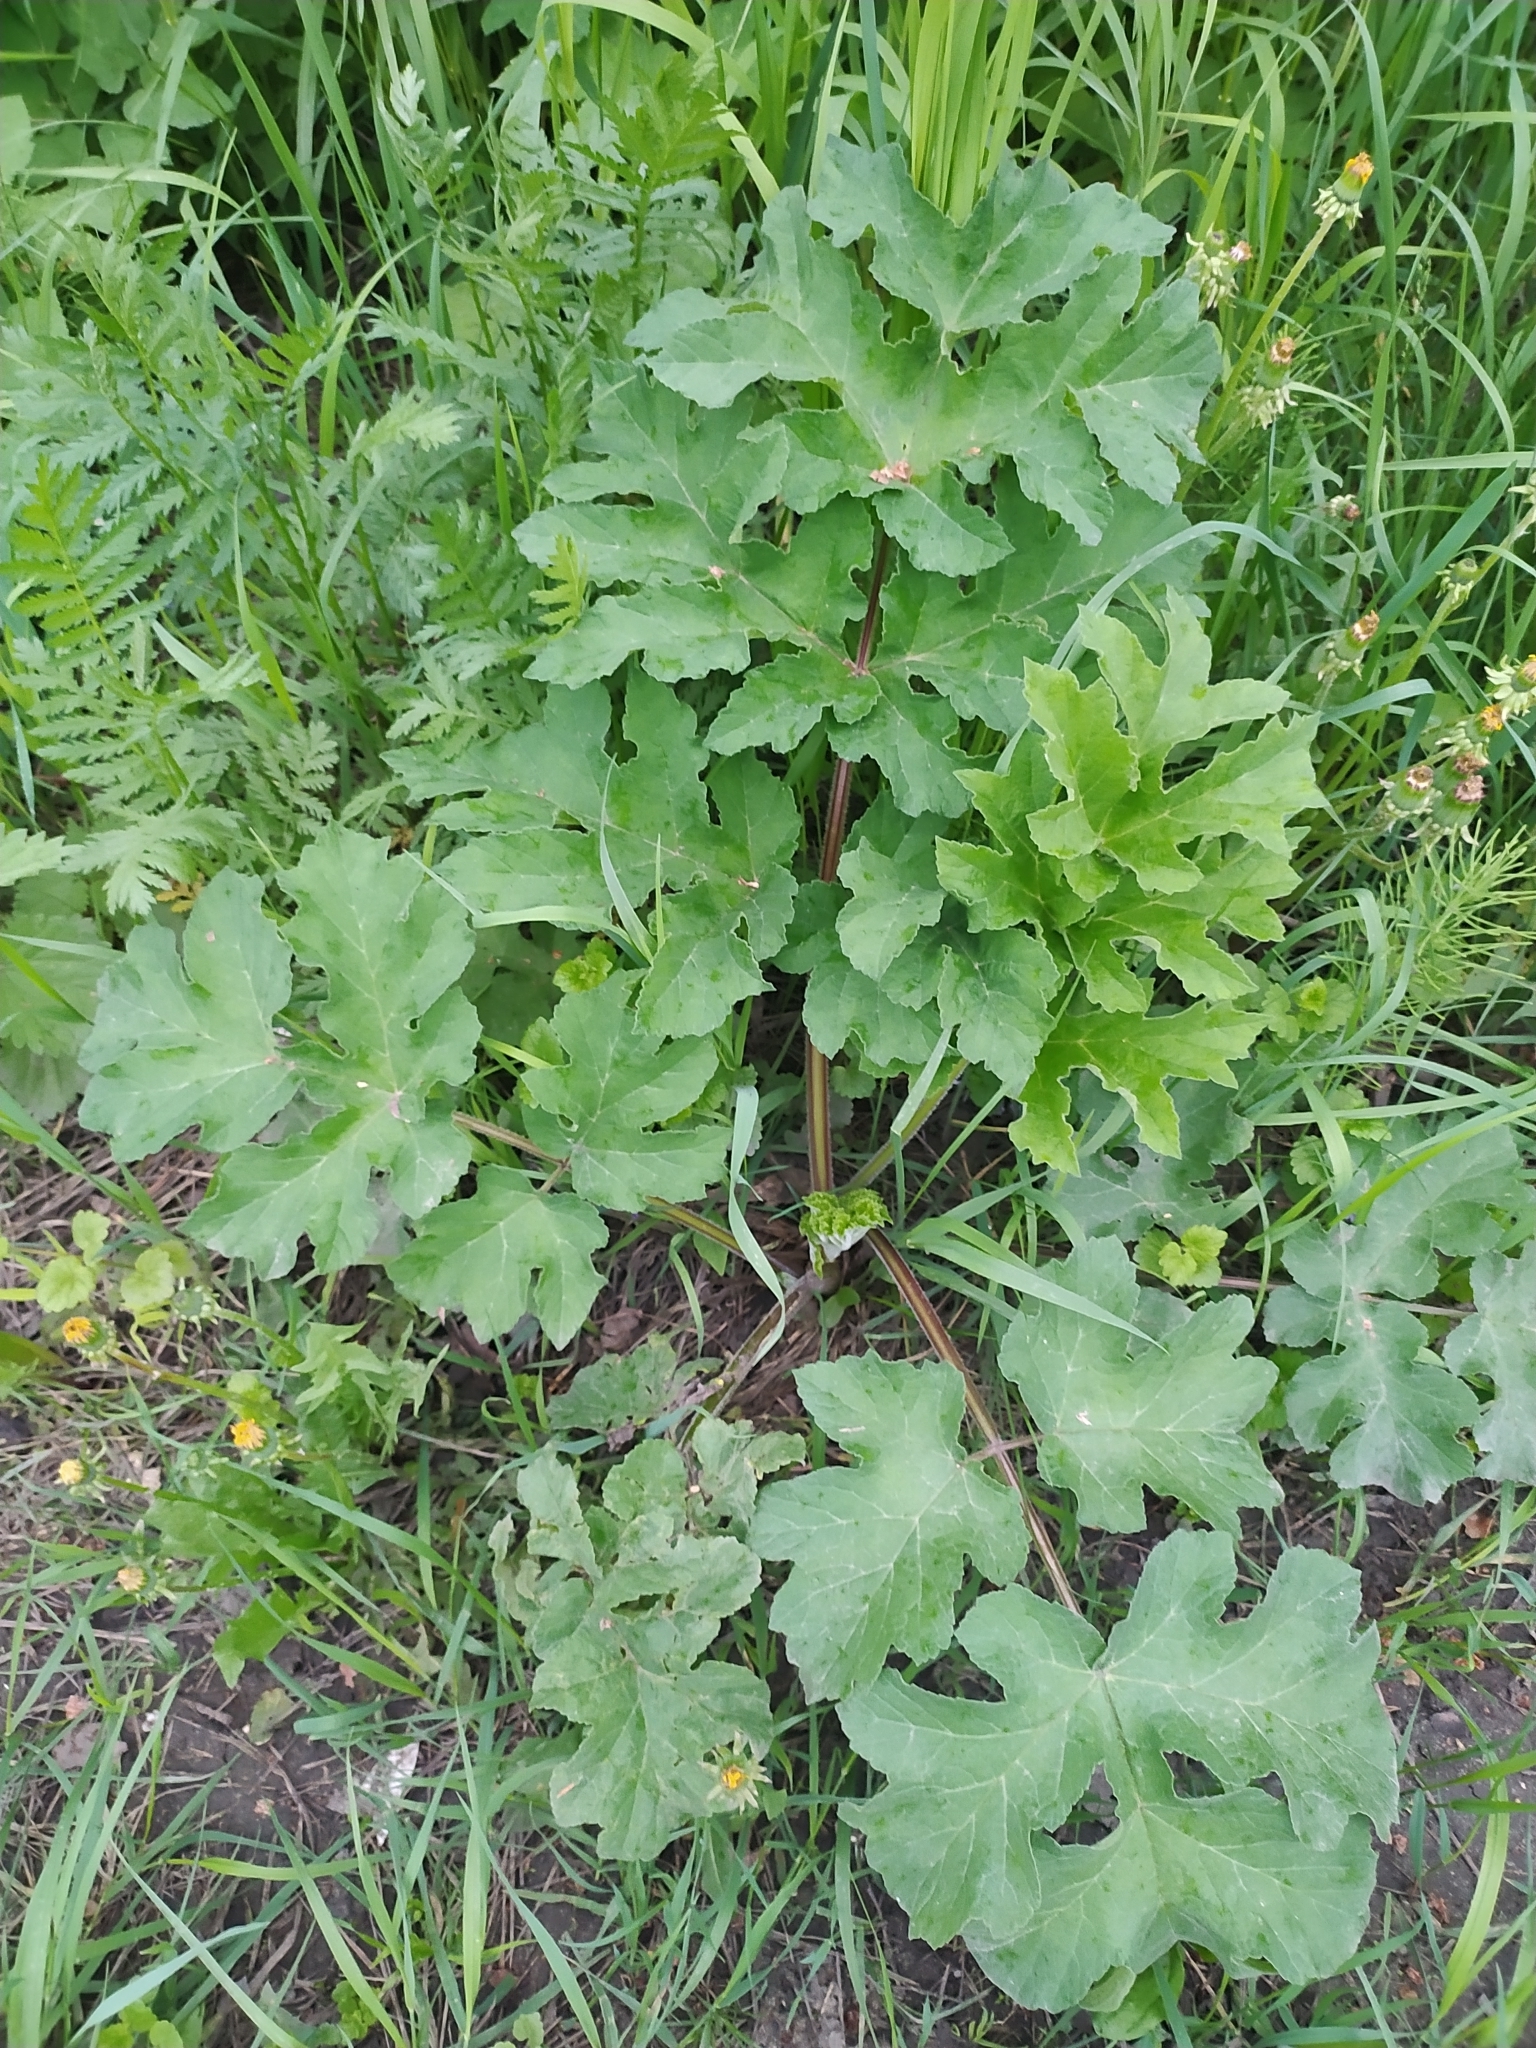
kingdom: Plantae
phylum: Tracheophyta
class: Magnoliopsida
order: Apiales
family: Apiaceae
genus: Heracleum
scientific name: Heracleum sphondylium
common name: Hogweed
